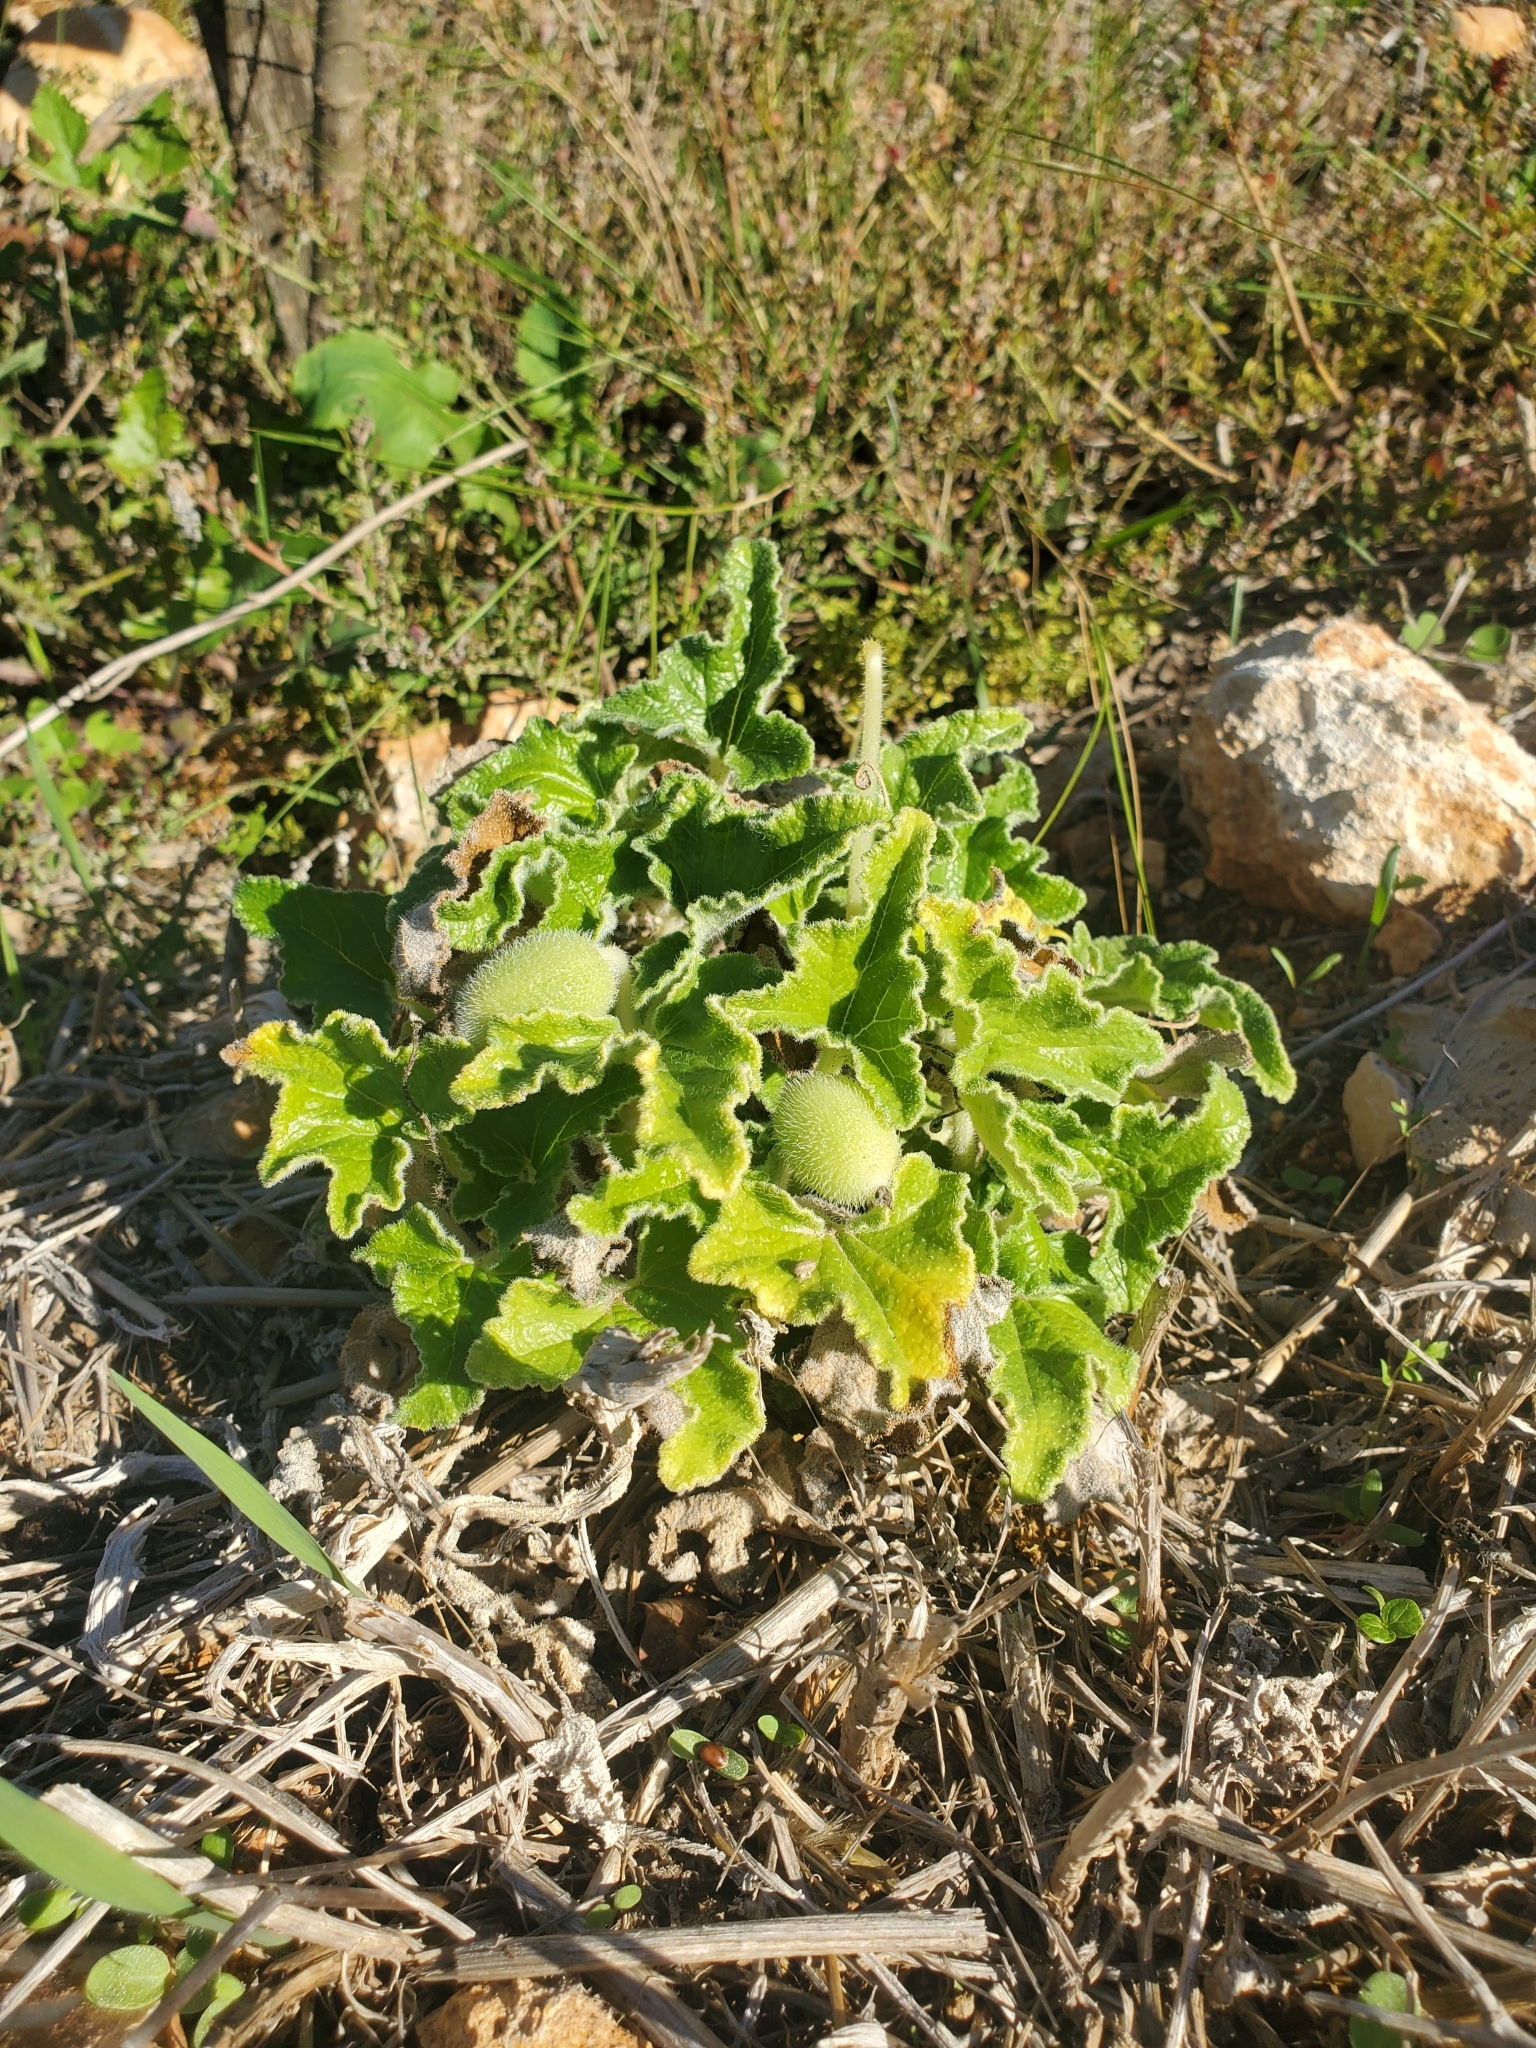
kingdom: Plantae
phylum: Tracheophyta
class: Magnoliopsida
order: Cucurbitales
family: Cucurbitaceae
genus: Ecballium
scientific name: Ecballium elaterium
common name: Squirting cucumber
